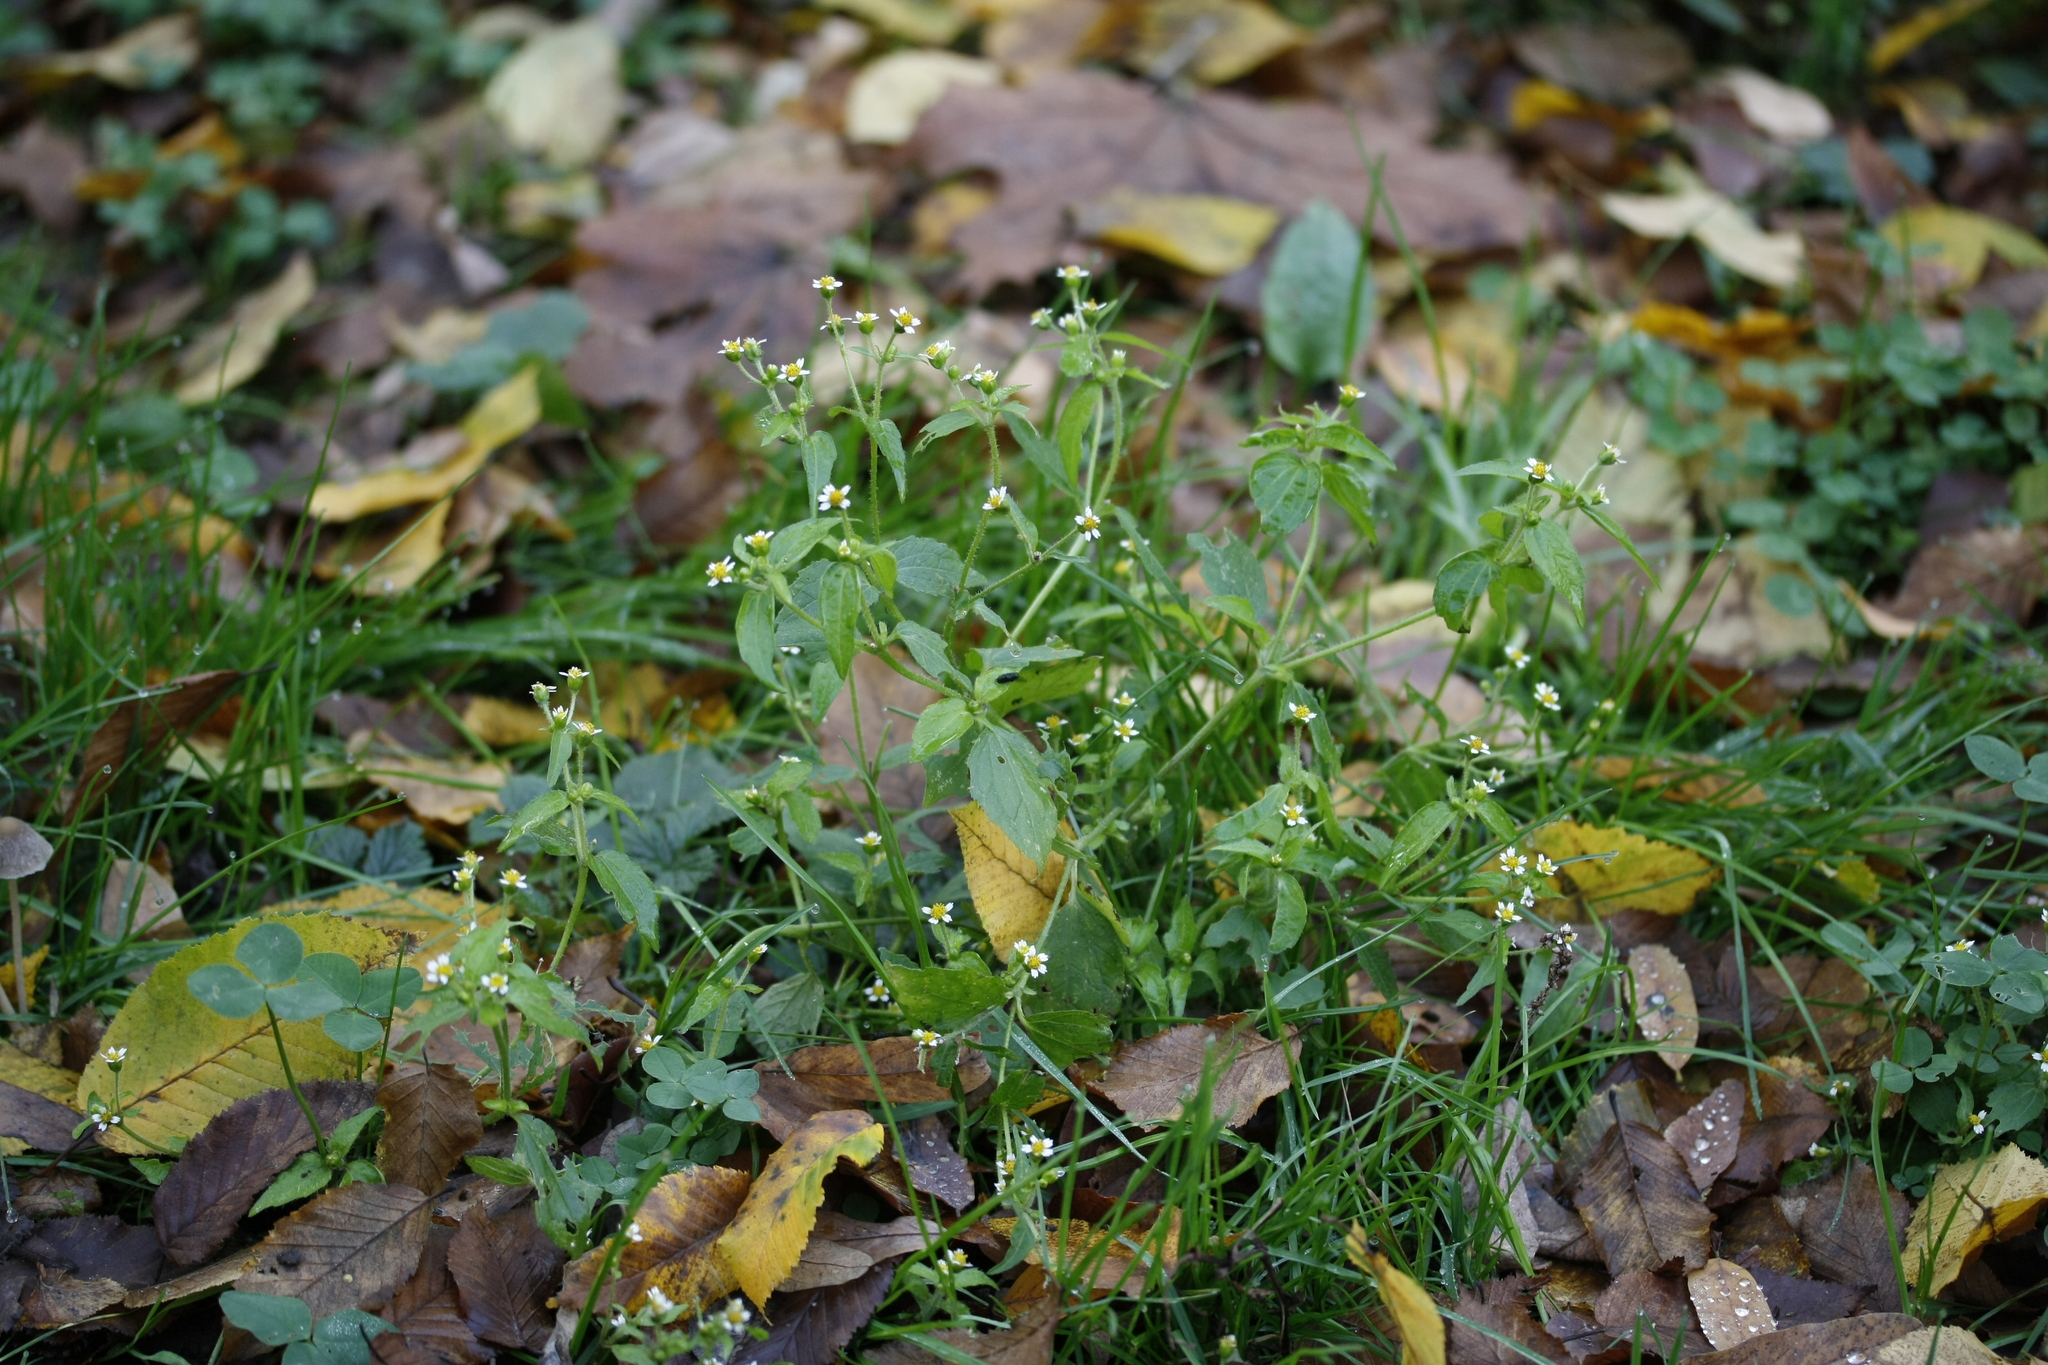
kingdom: Plantae
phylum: Tracheophyta
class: Magnoliopsida
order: Asterales
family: Asteraceae
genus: Galinsoga
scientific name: Galinsoga quadriradiata
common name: Shaggy soldier
